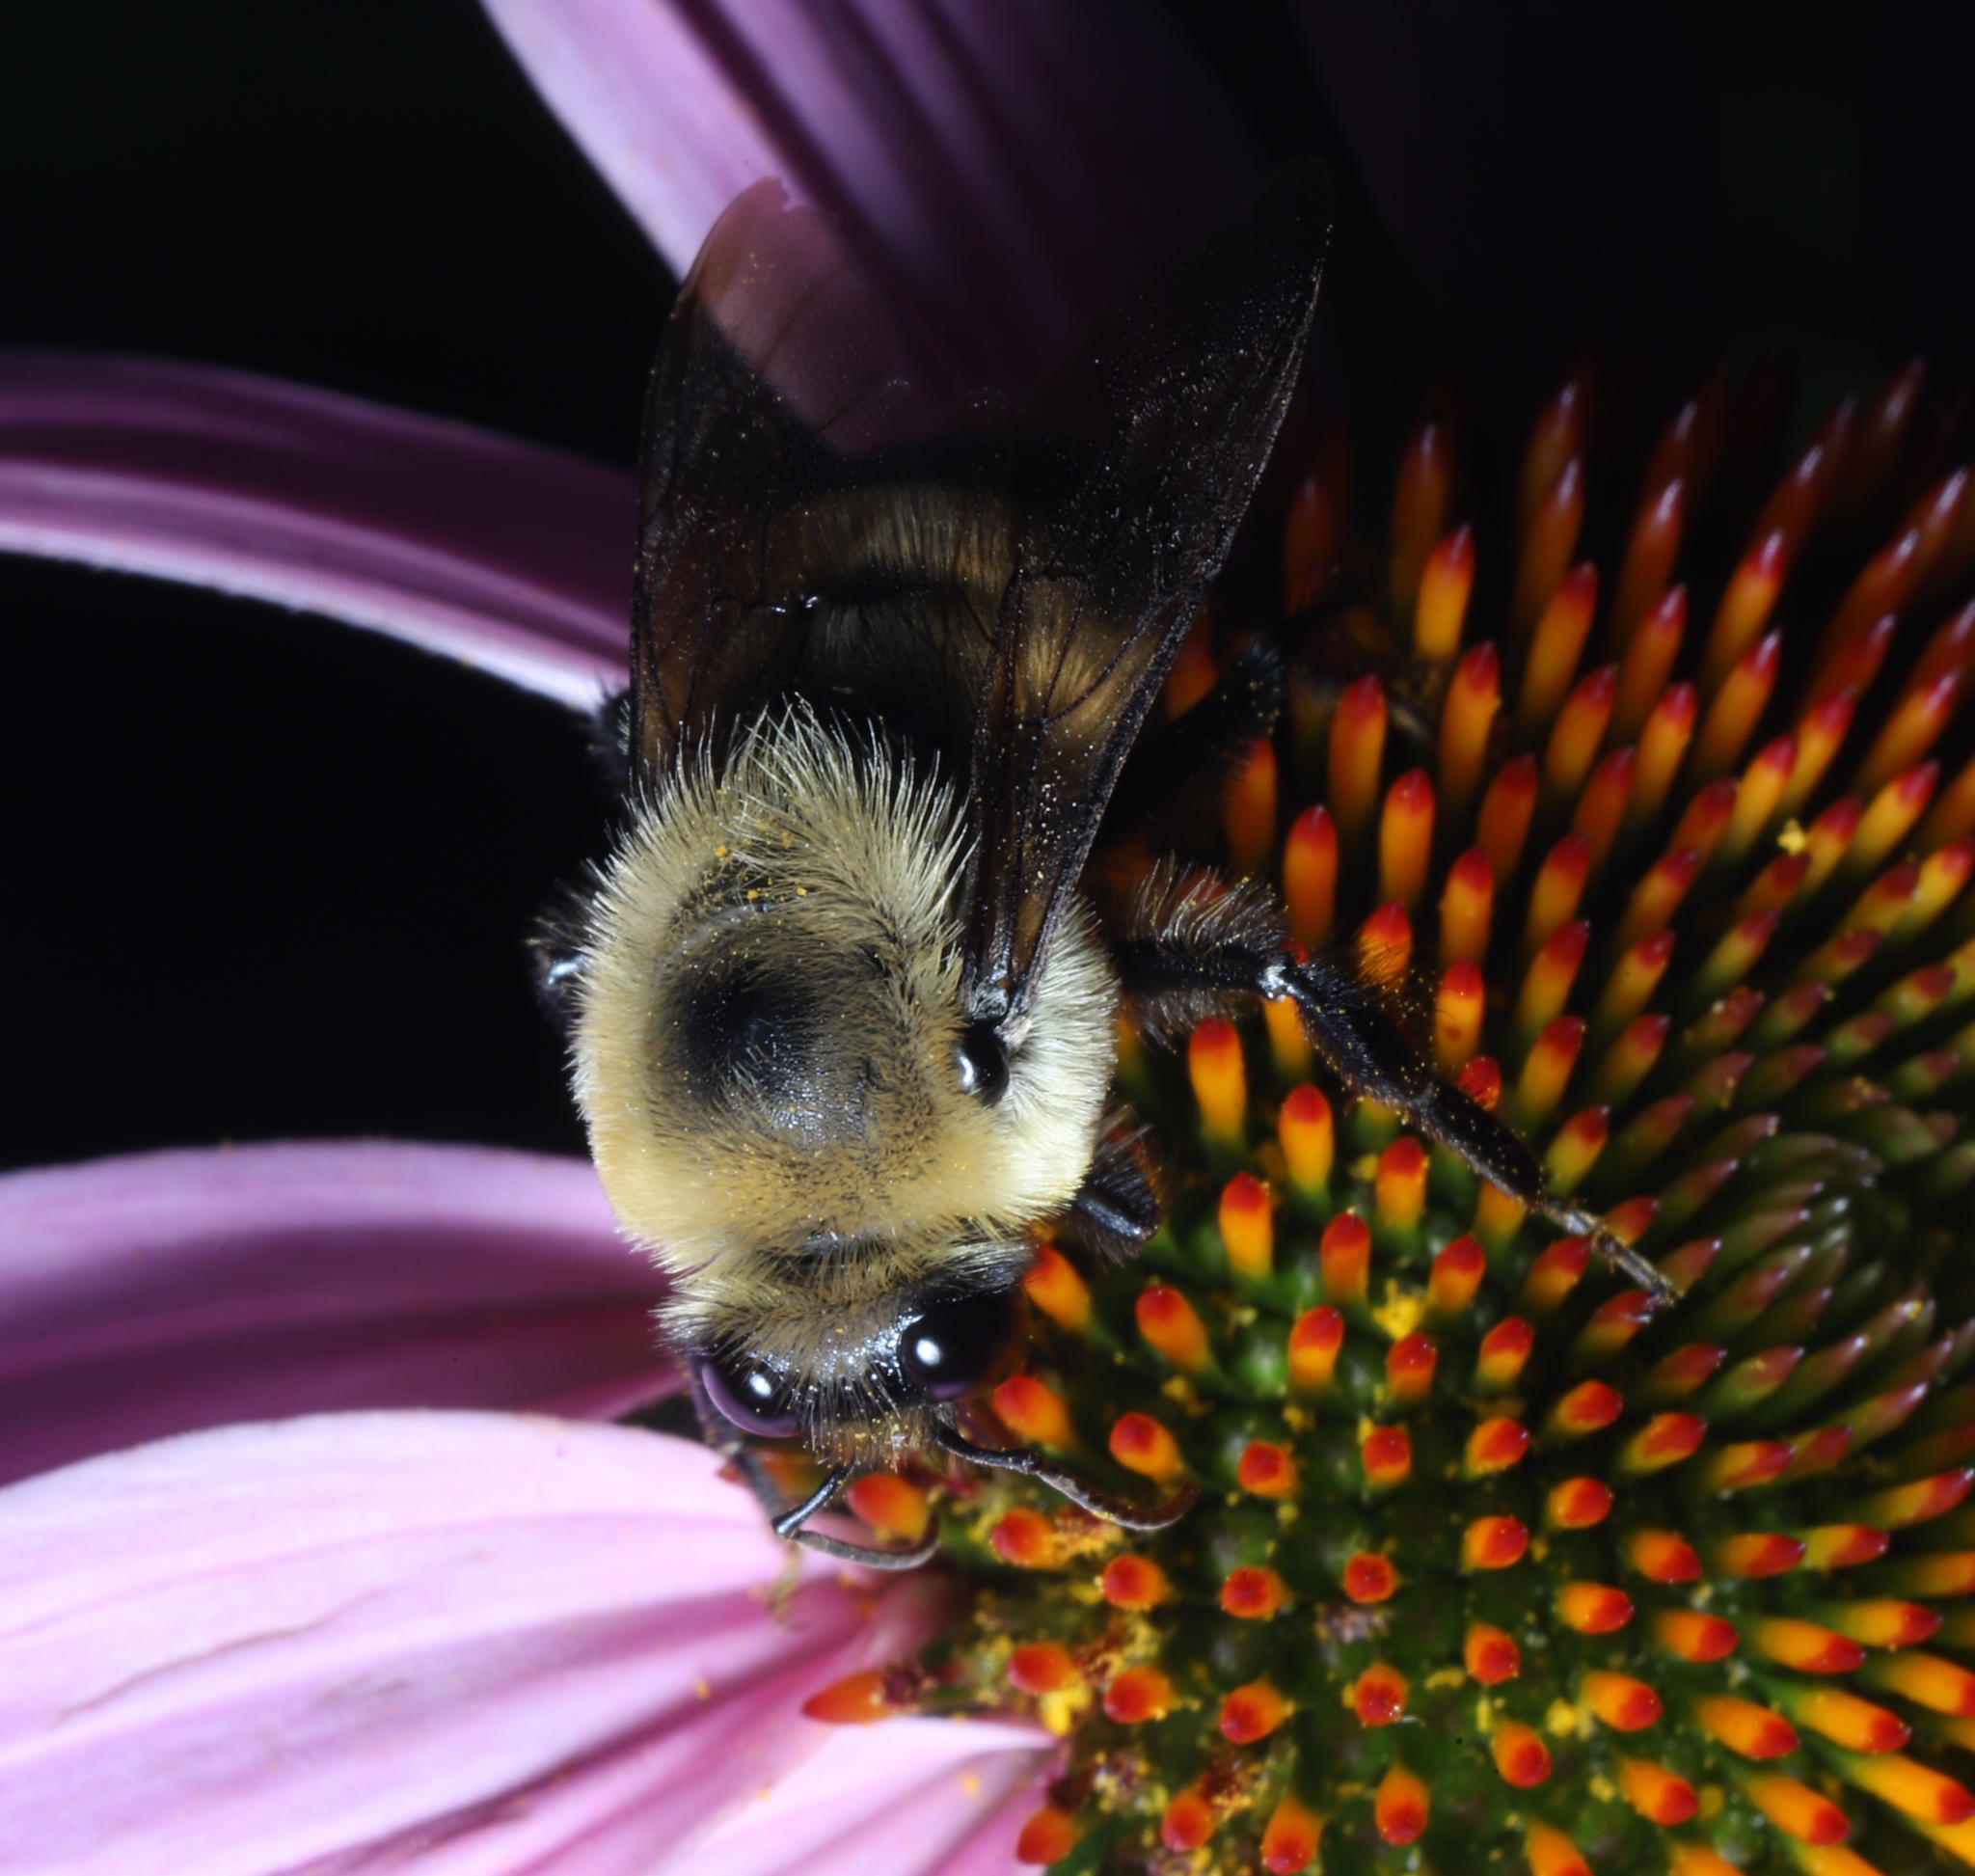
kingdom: Animalia
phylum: Arthropoda
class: Insecta
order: Hymenoptera
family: Apidae
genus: Bombus
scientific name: Bombus griseocollis
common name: Brown-belted bumble bee
